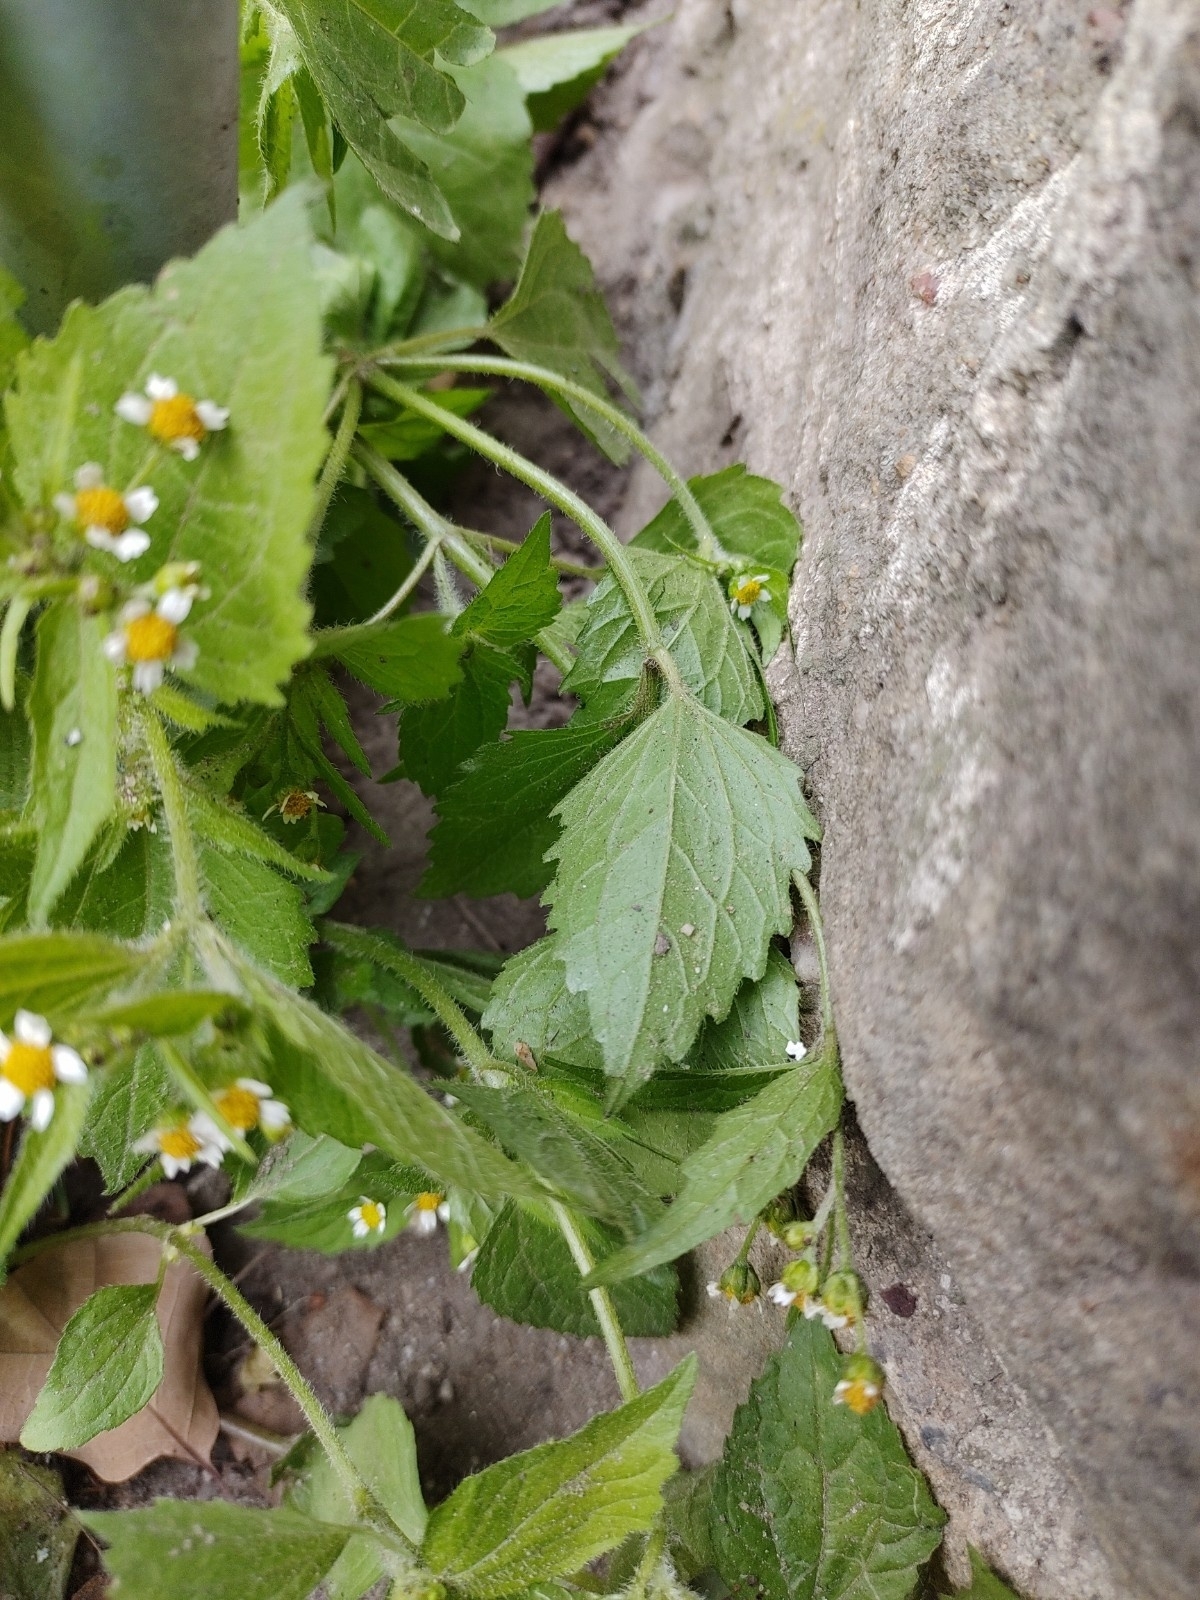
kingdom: Plantae
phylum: Tracheophyta
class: Magnoliopsida
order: Asterales
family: Asteraceae
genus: Galinsoga
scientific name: Galinsoga quadriradiata
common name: Shaggy soldier
